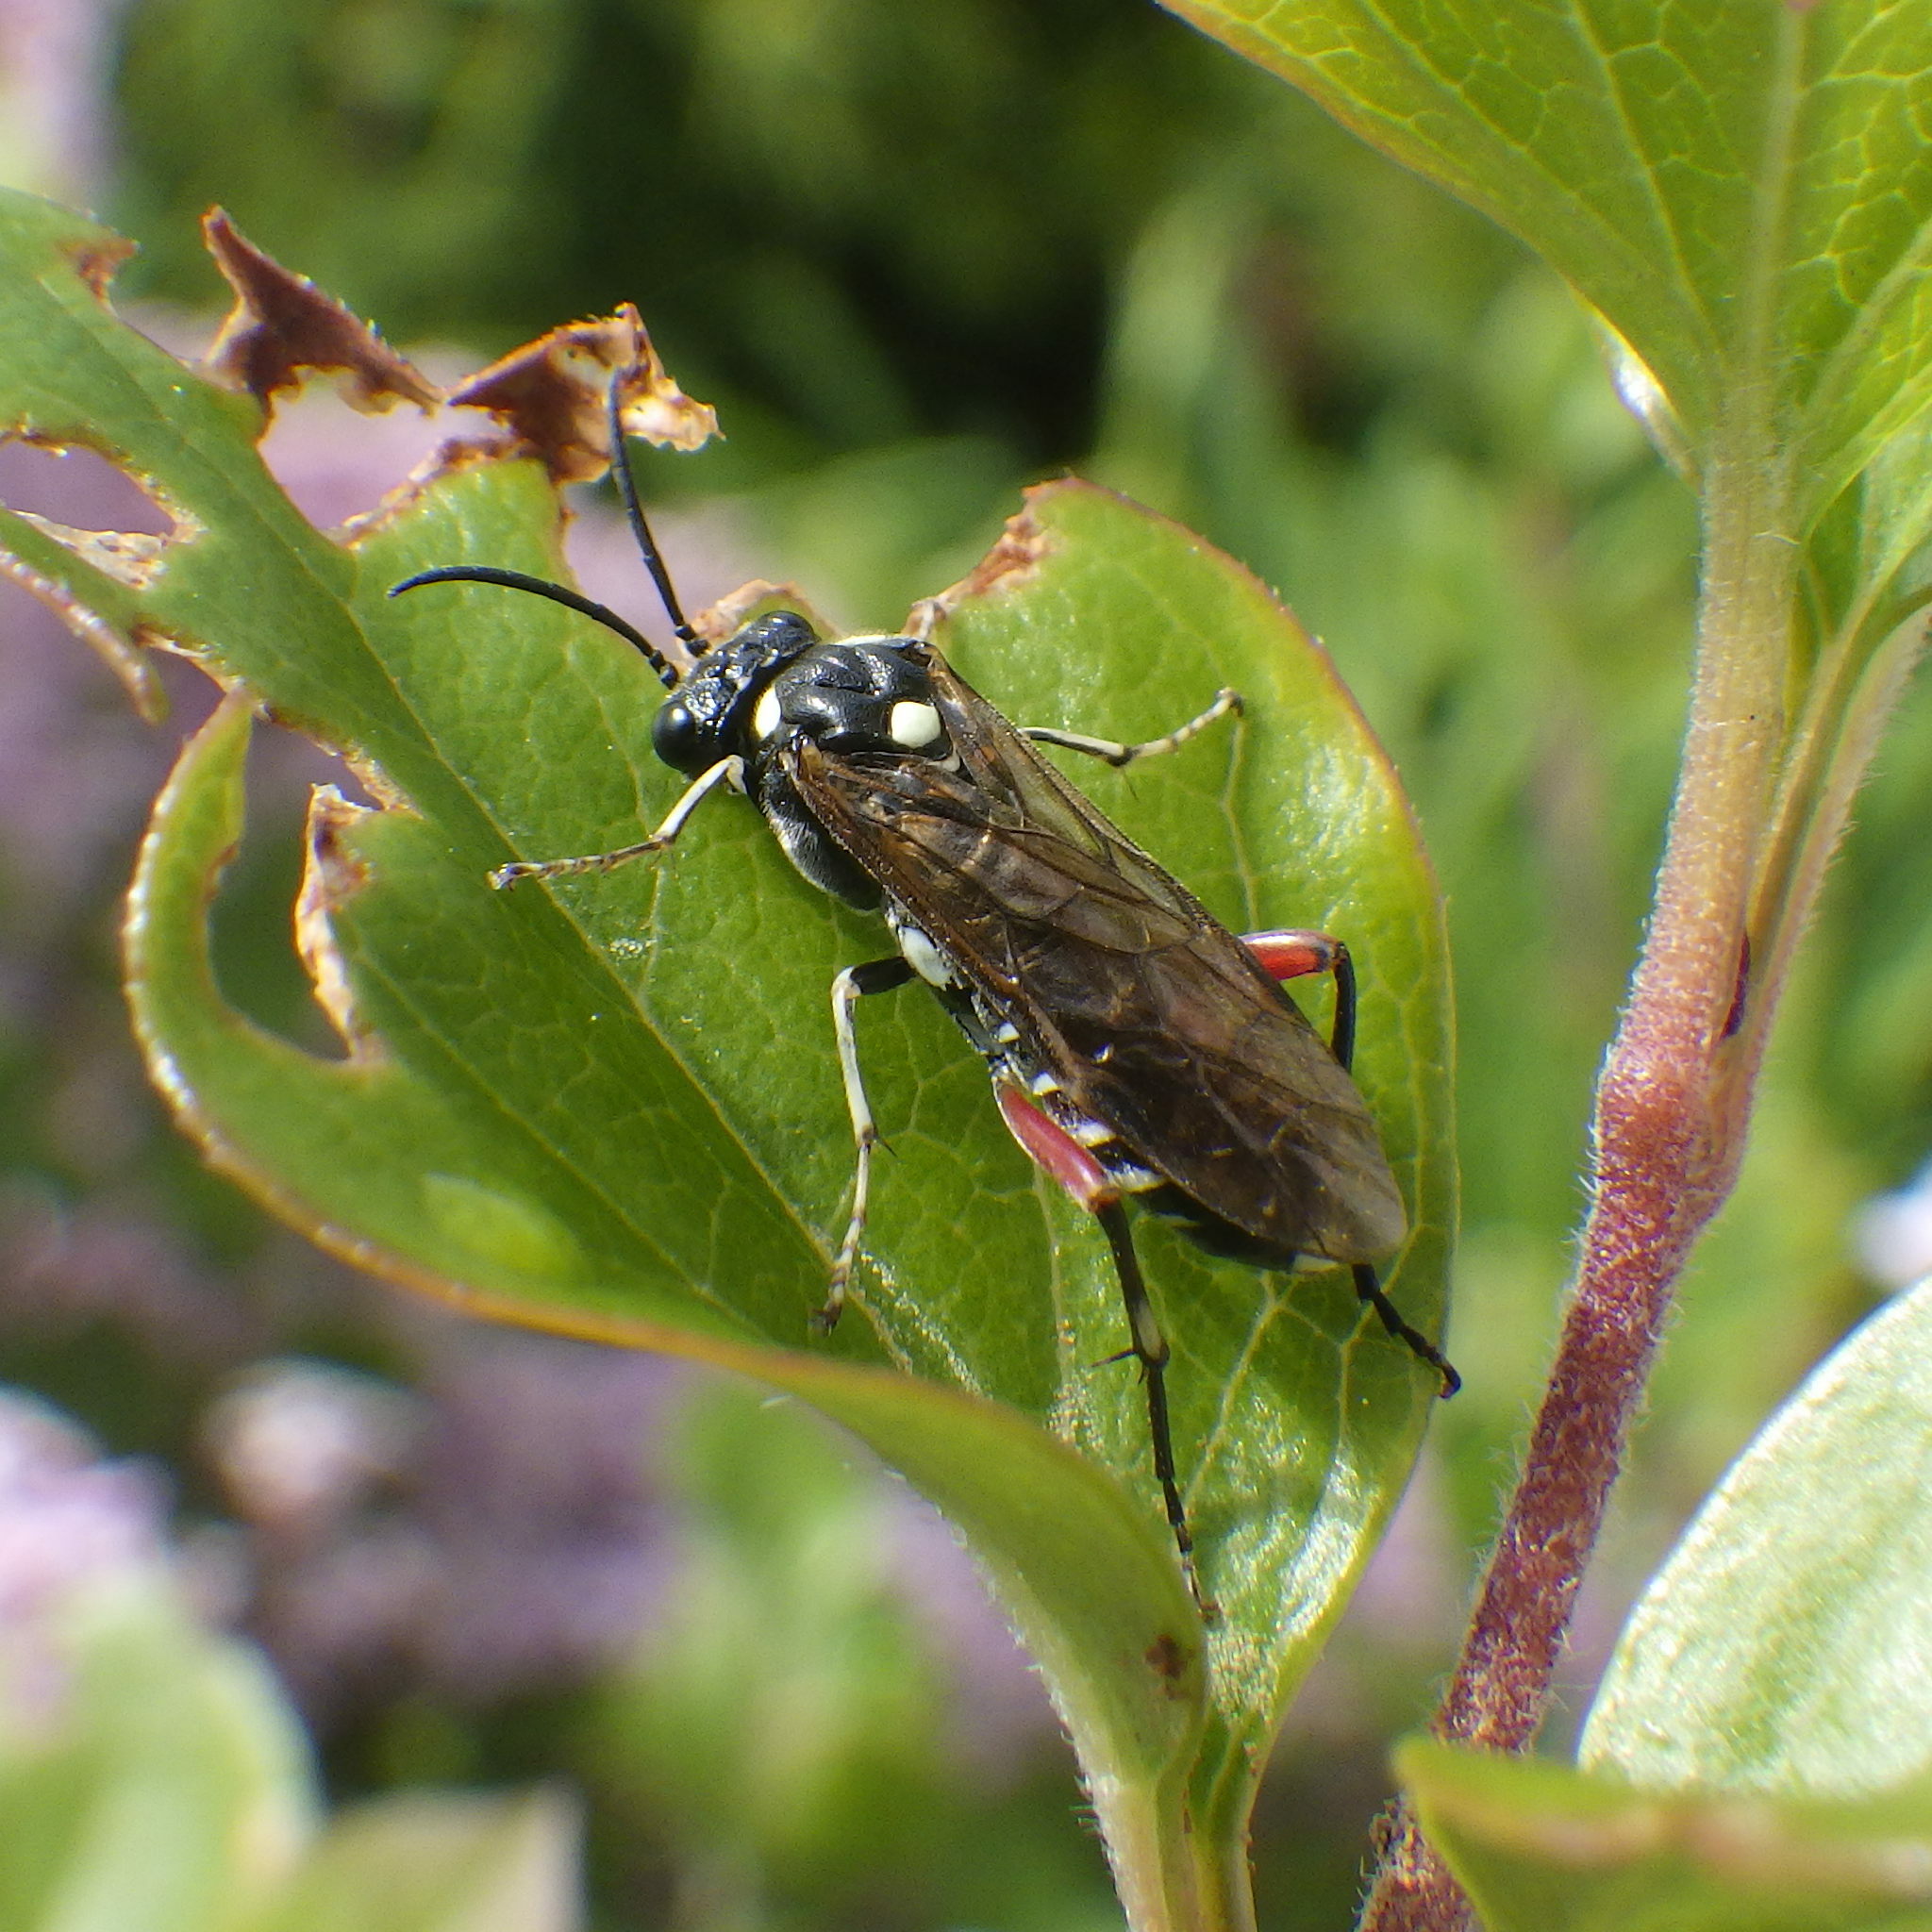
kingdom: Animalia
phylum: Arthropoda
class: Insecta
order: Hymenoptera
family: Tenthredinidae
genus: Macrophya
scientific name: Macrophya punctumalbum
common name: Sawfly
